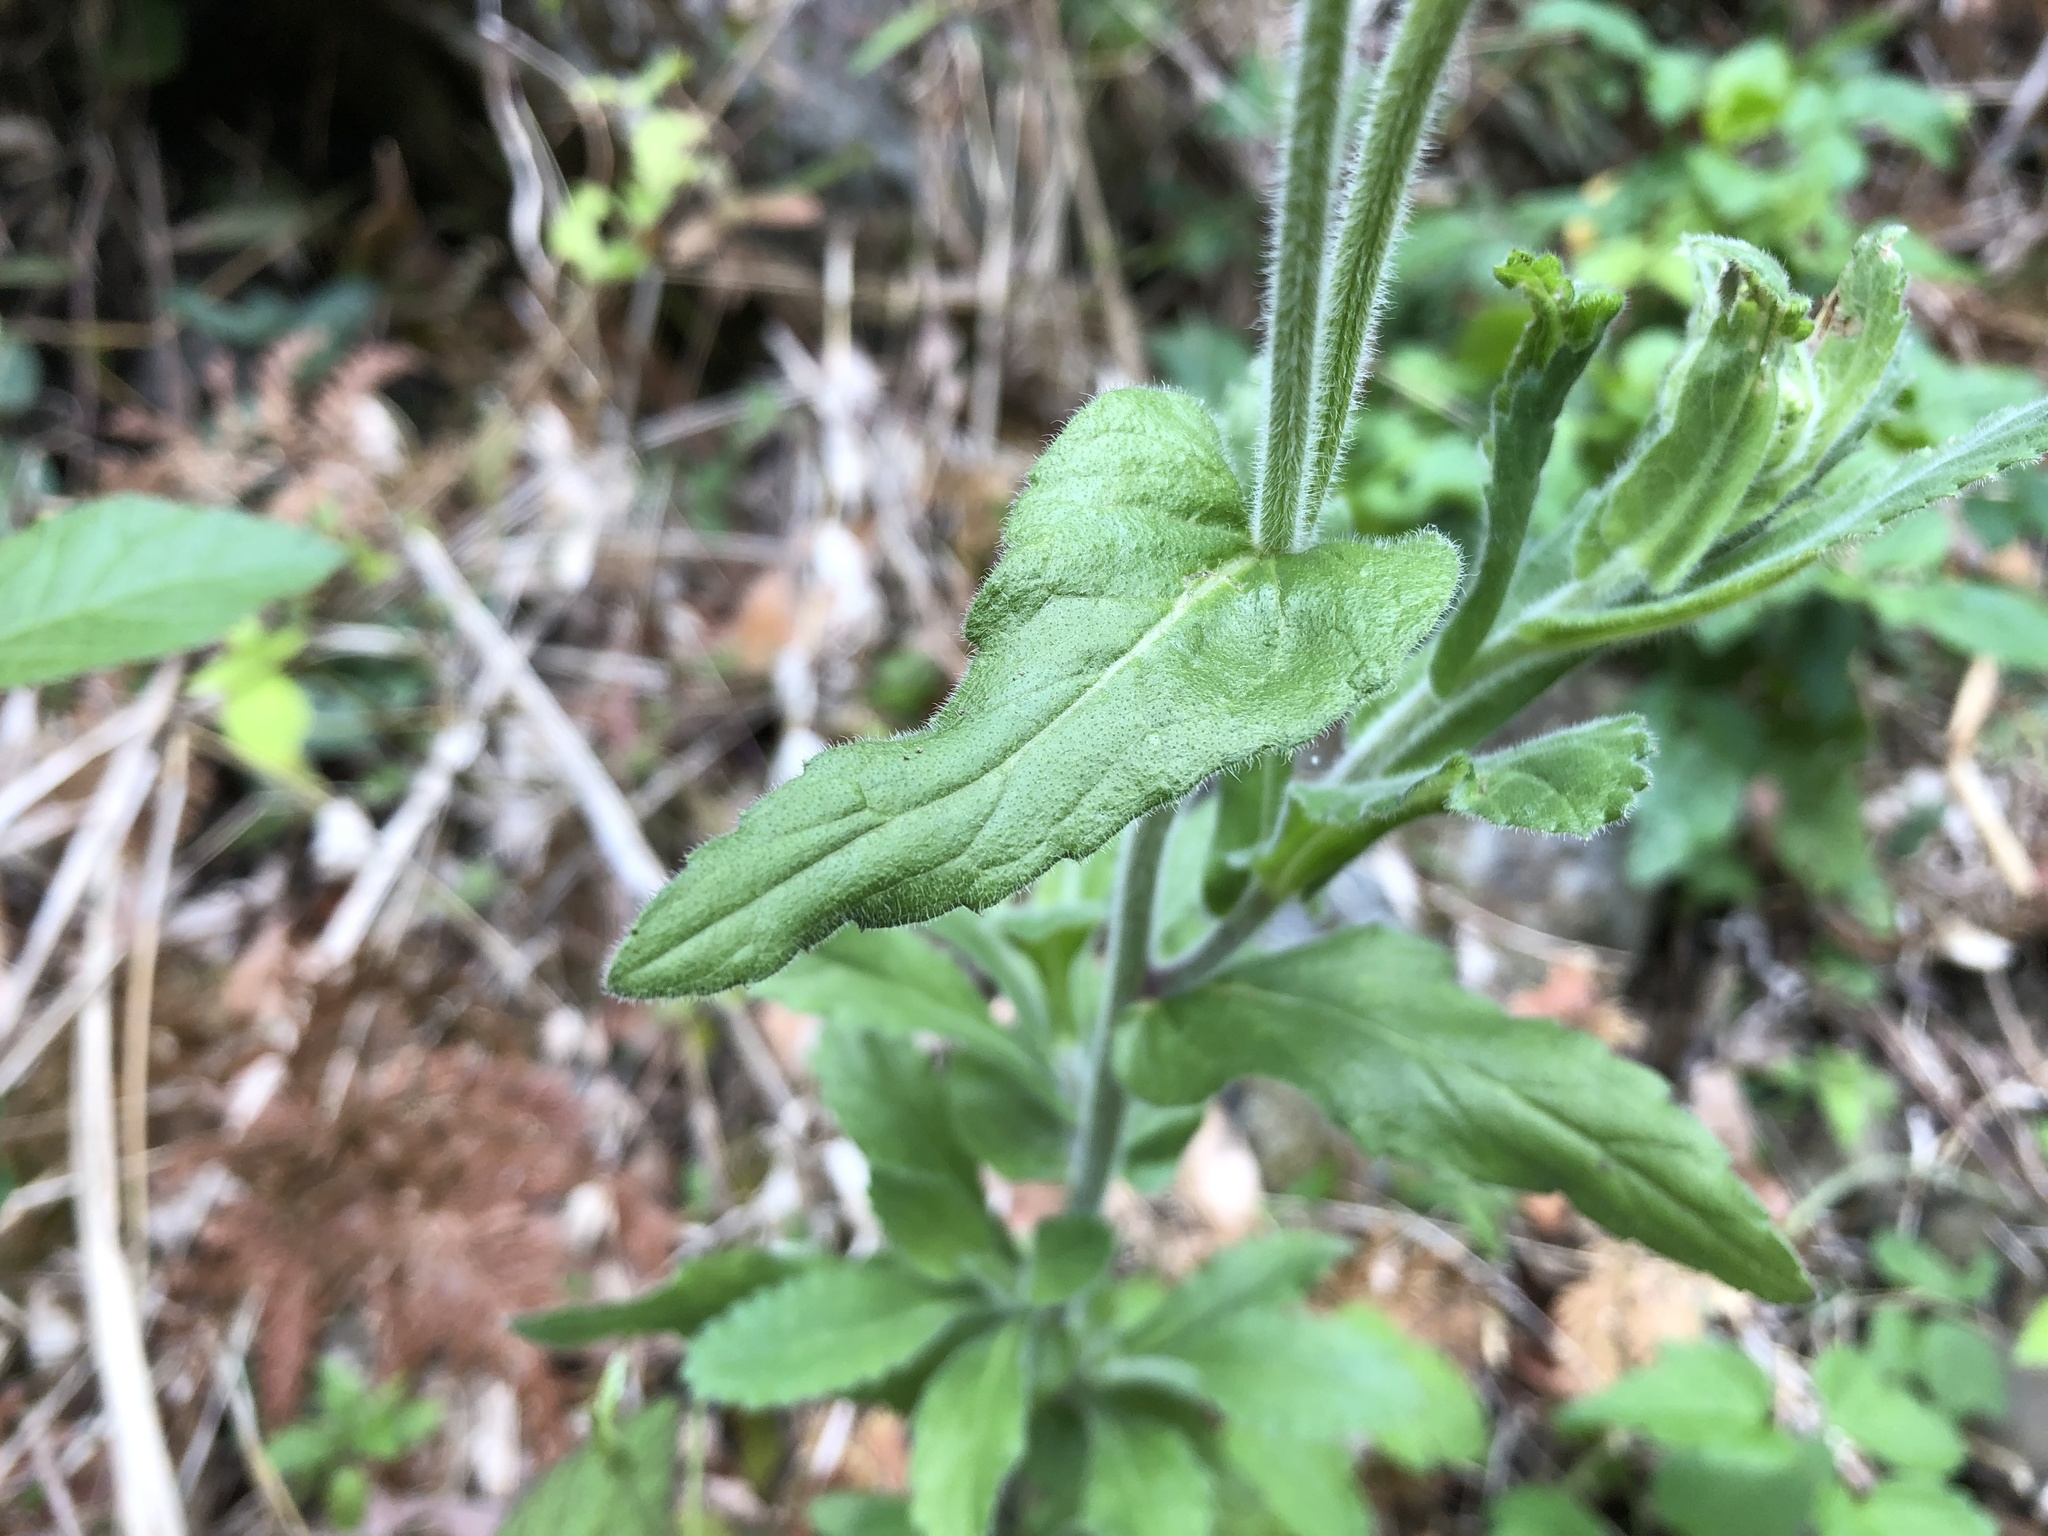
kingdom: Plantae
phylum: Tracheophyta
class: Magnoliopsida
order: Asterales
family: Asteraceae
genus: Eschenbachia
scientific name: Eschenbachia japonica
